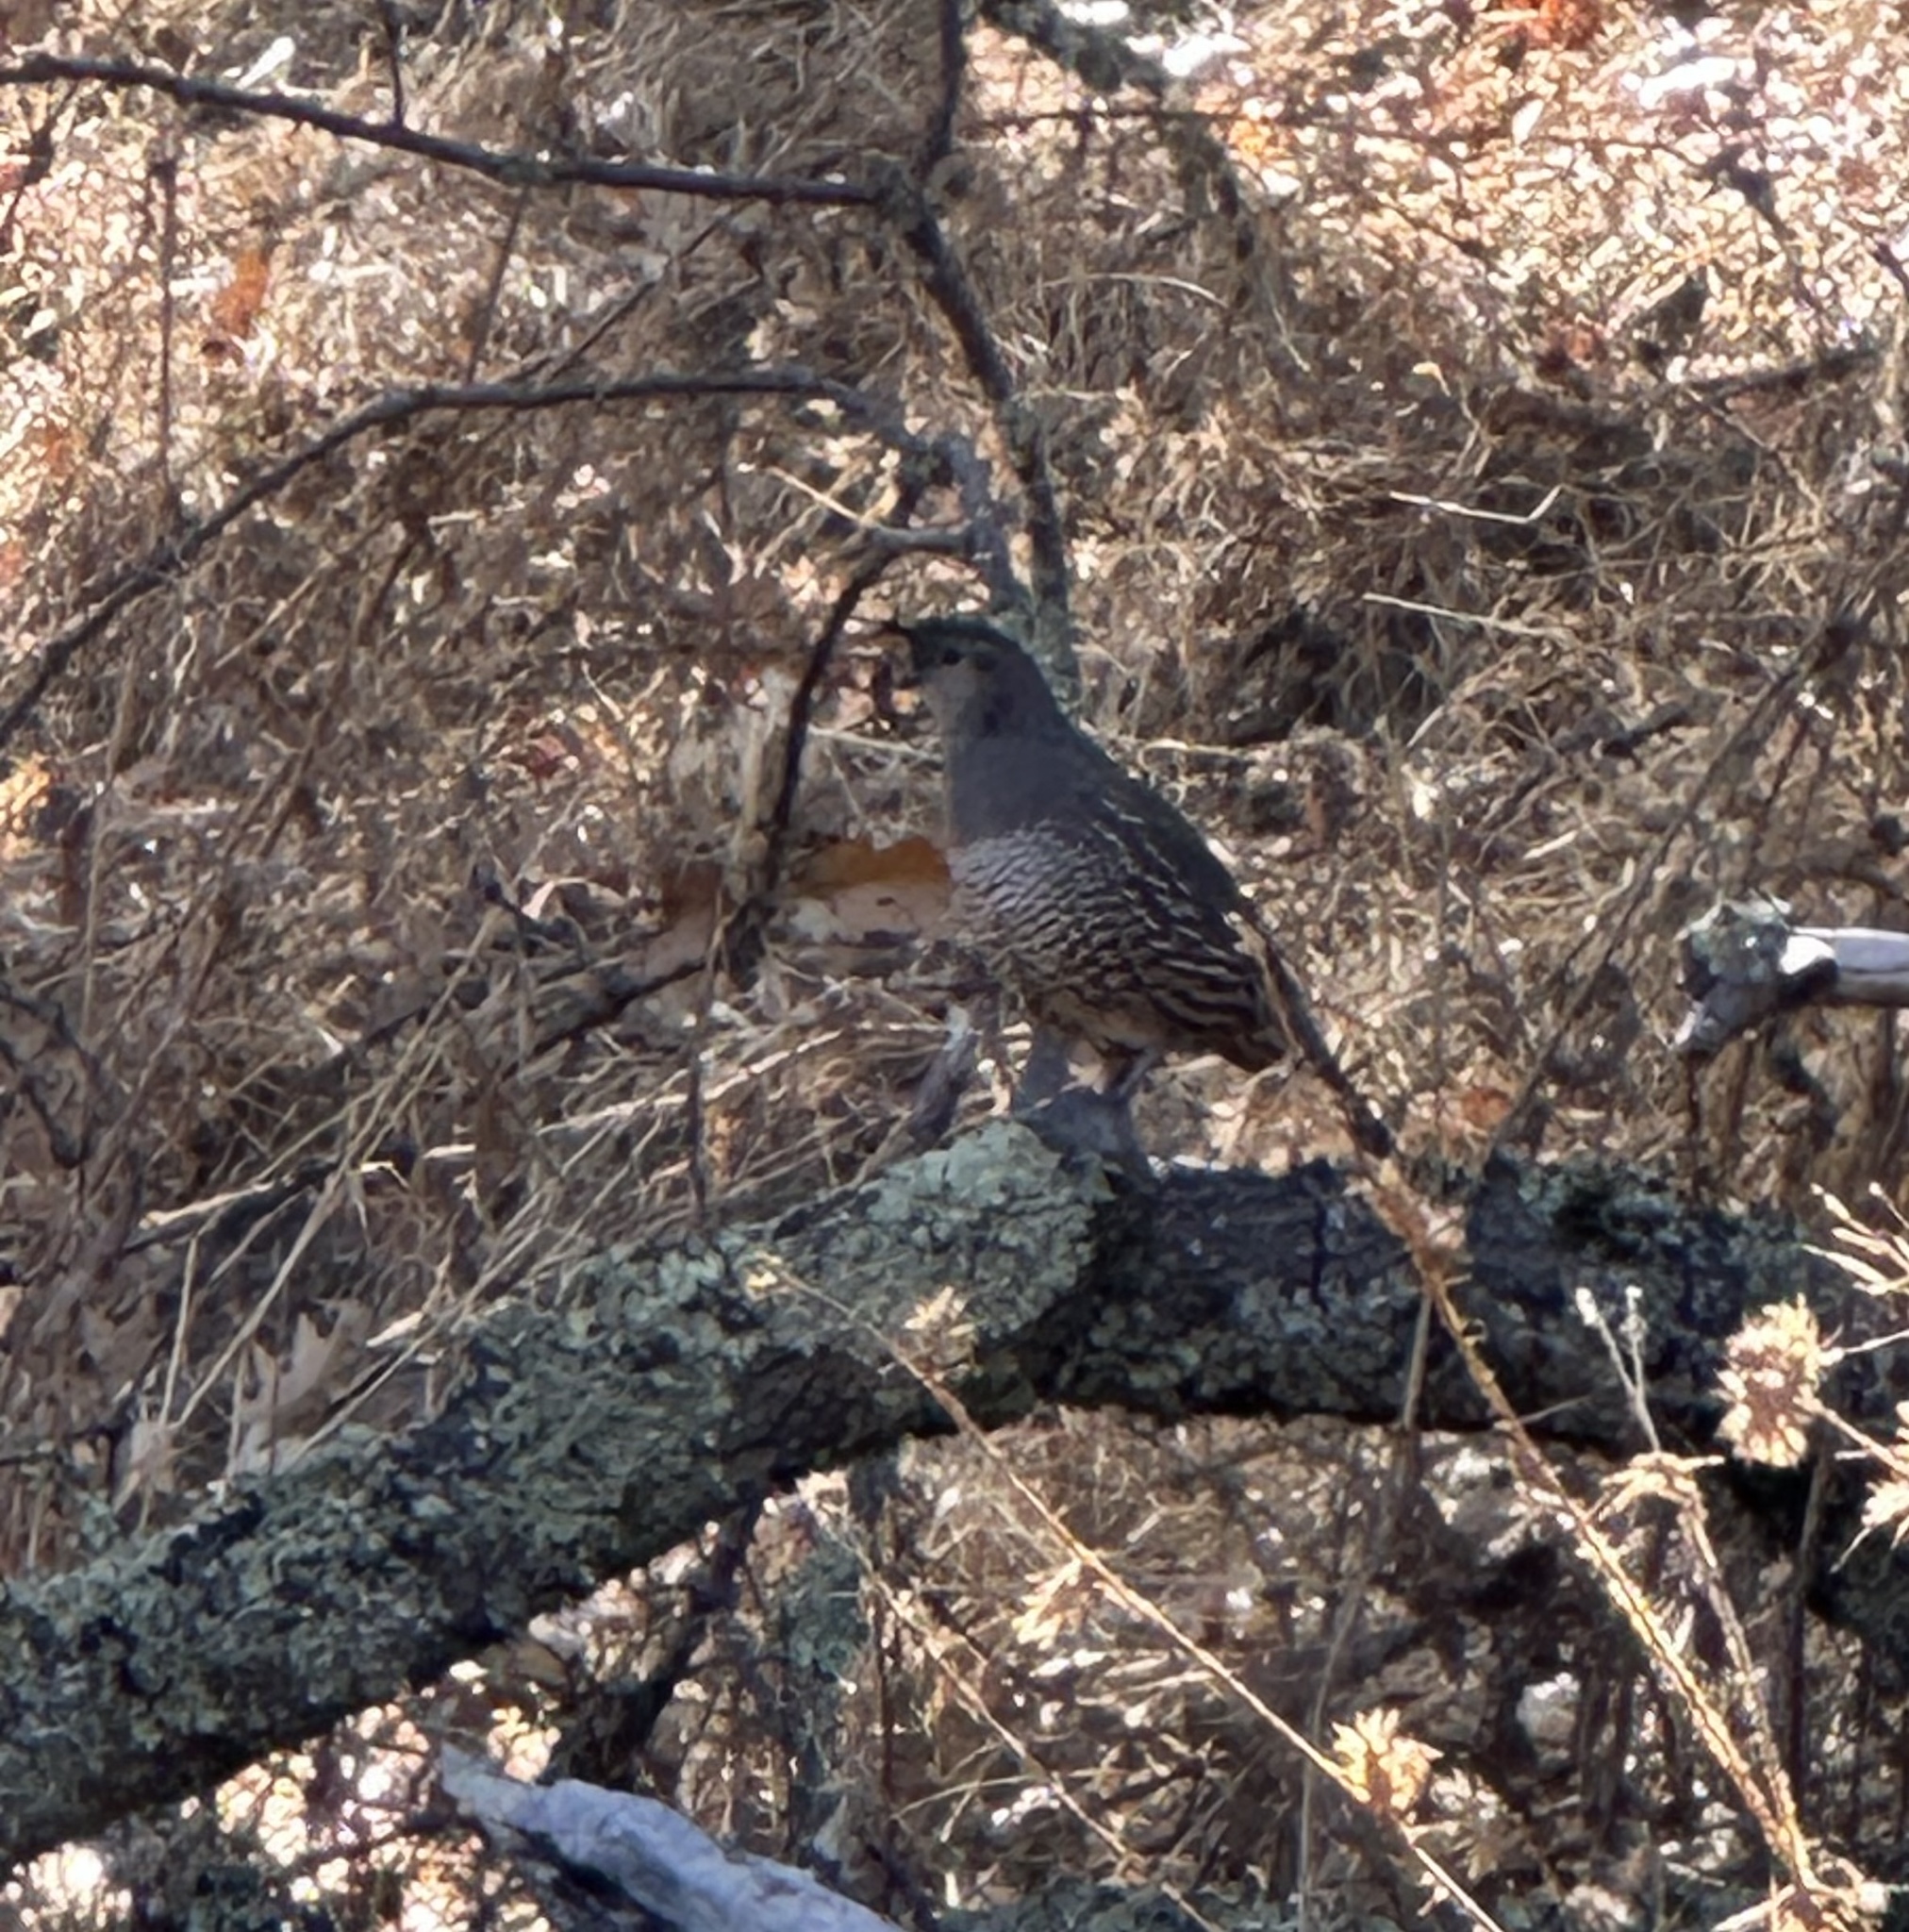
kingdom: Animalia
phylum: Chordata
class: Aves
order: Galliformes
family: Odontophoridae
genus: Callipepla
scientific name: Callipepla californica
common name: California quail
